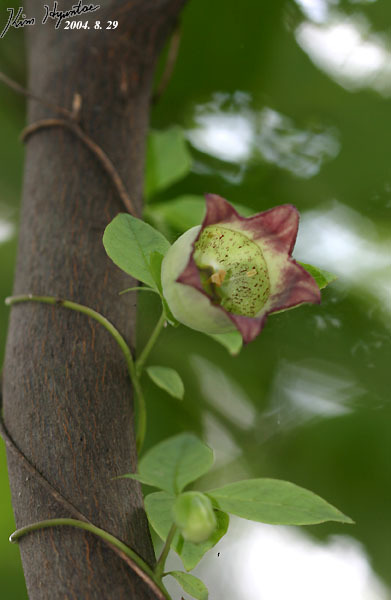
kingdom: Plantae
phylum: Tracheophyta
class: Magnoliopsida
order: Asterales
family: Campanulaceae
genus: Codonopsis
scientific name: Codonopsis lanceolata
